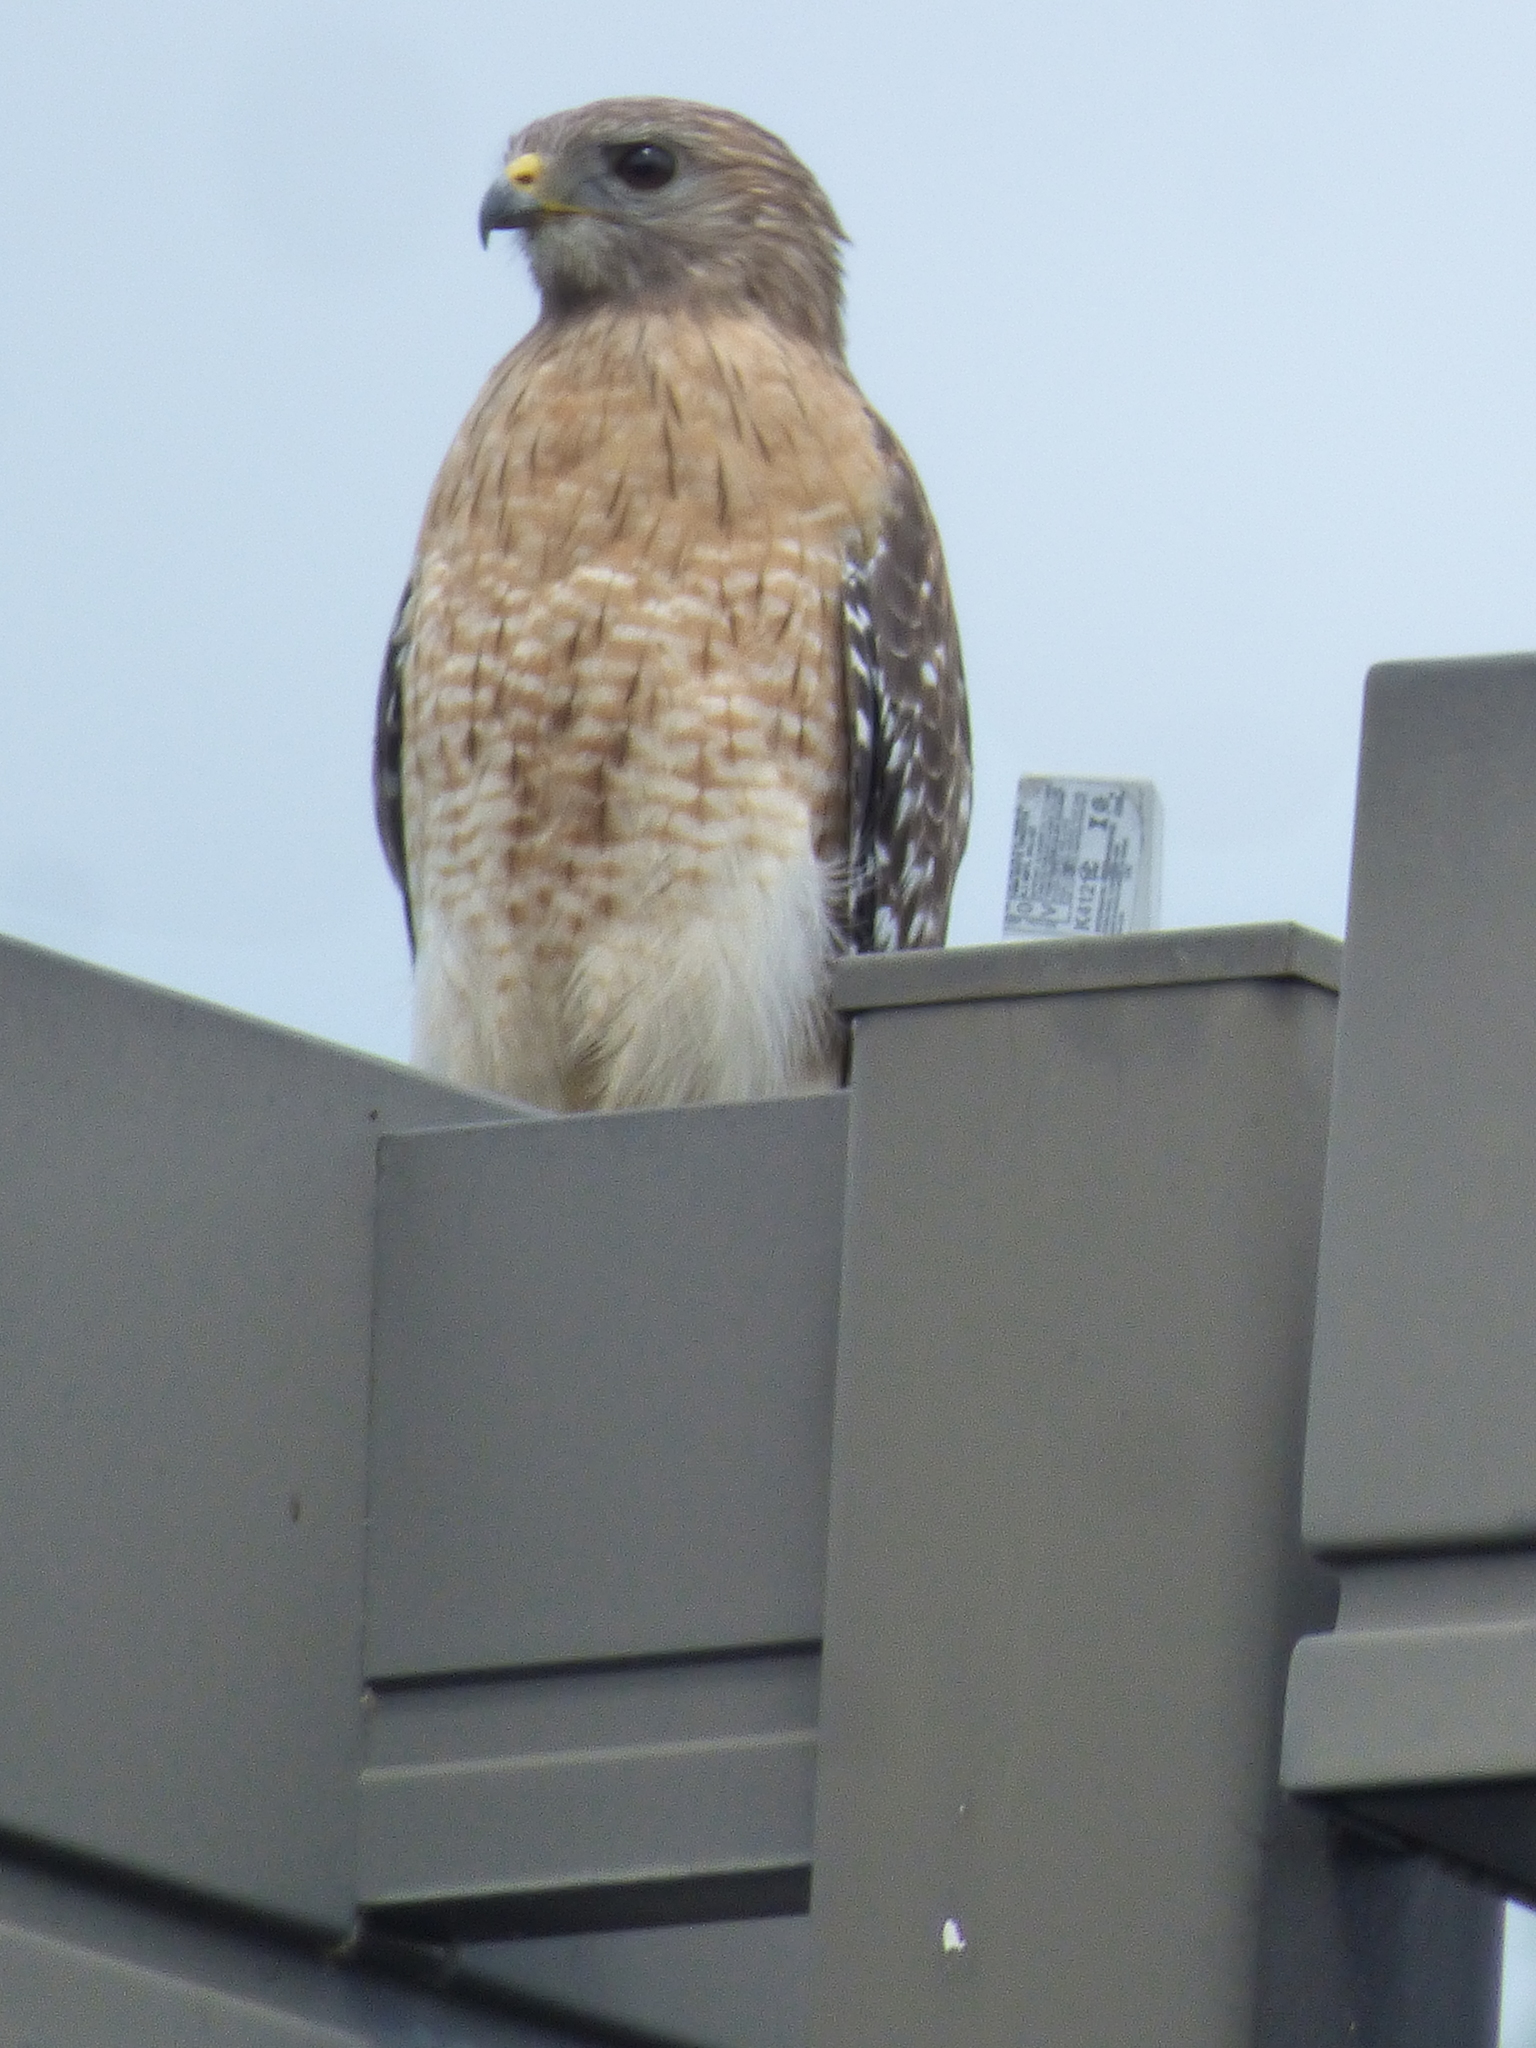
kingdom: Animalia
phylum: Chordata
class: Aves
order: Accipitriformes
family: Accipitridae
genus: Buteo
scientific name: Buteo lineatus
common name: Red-shouldered hawk
